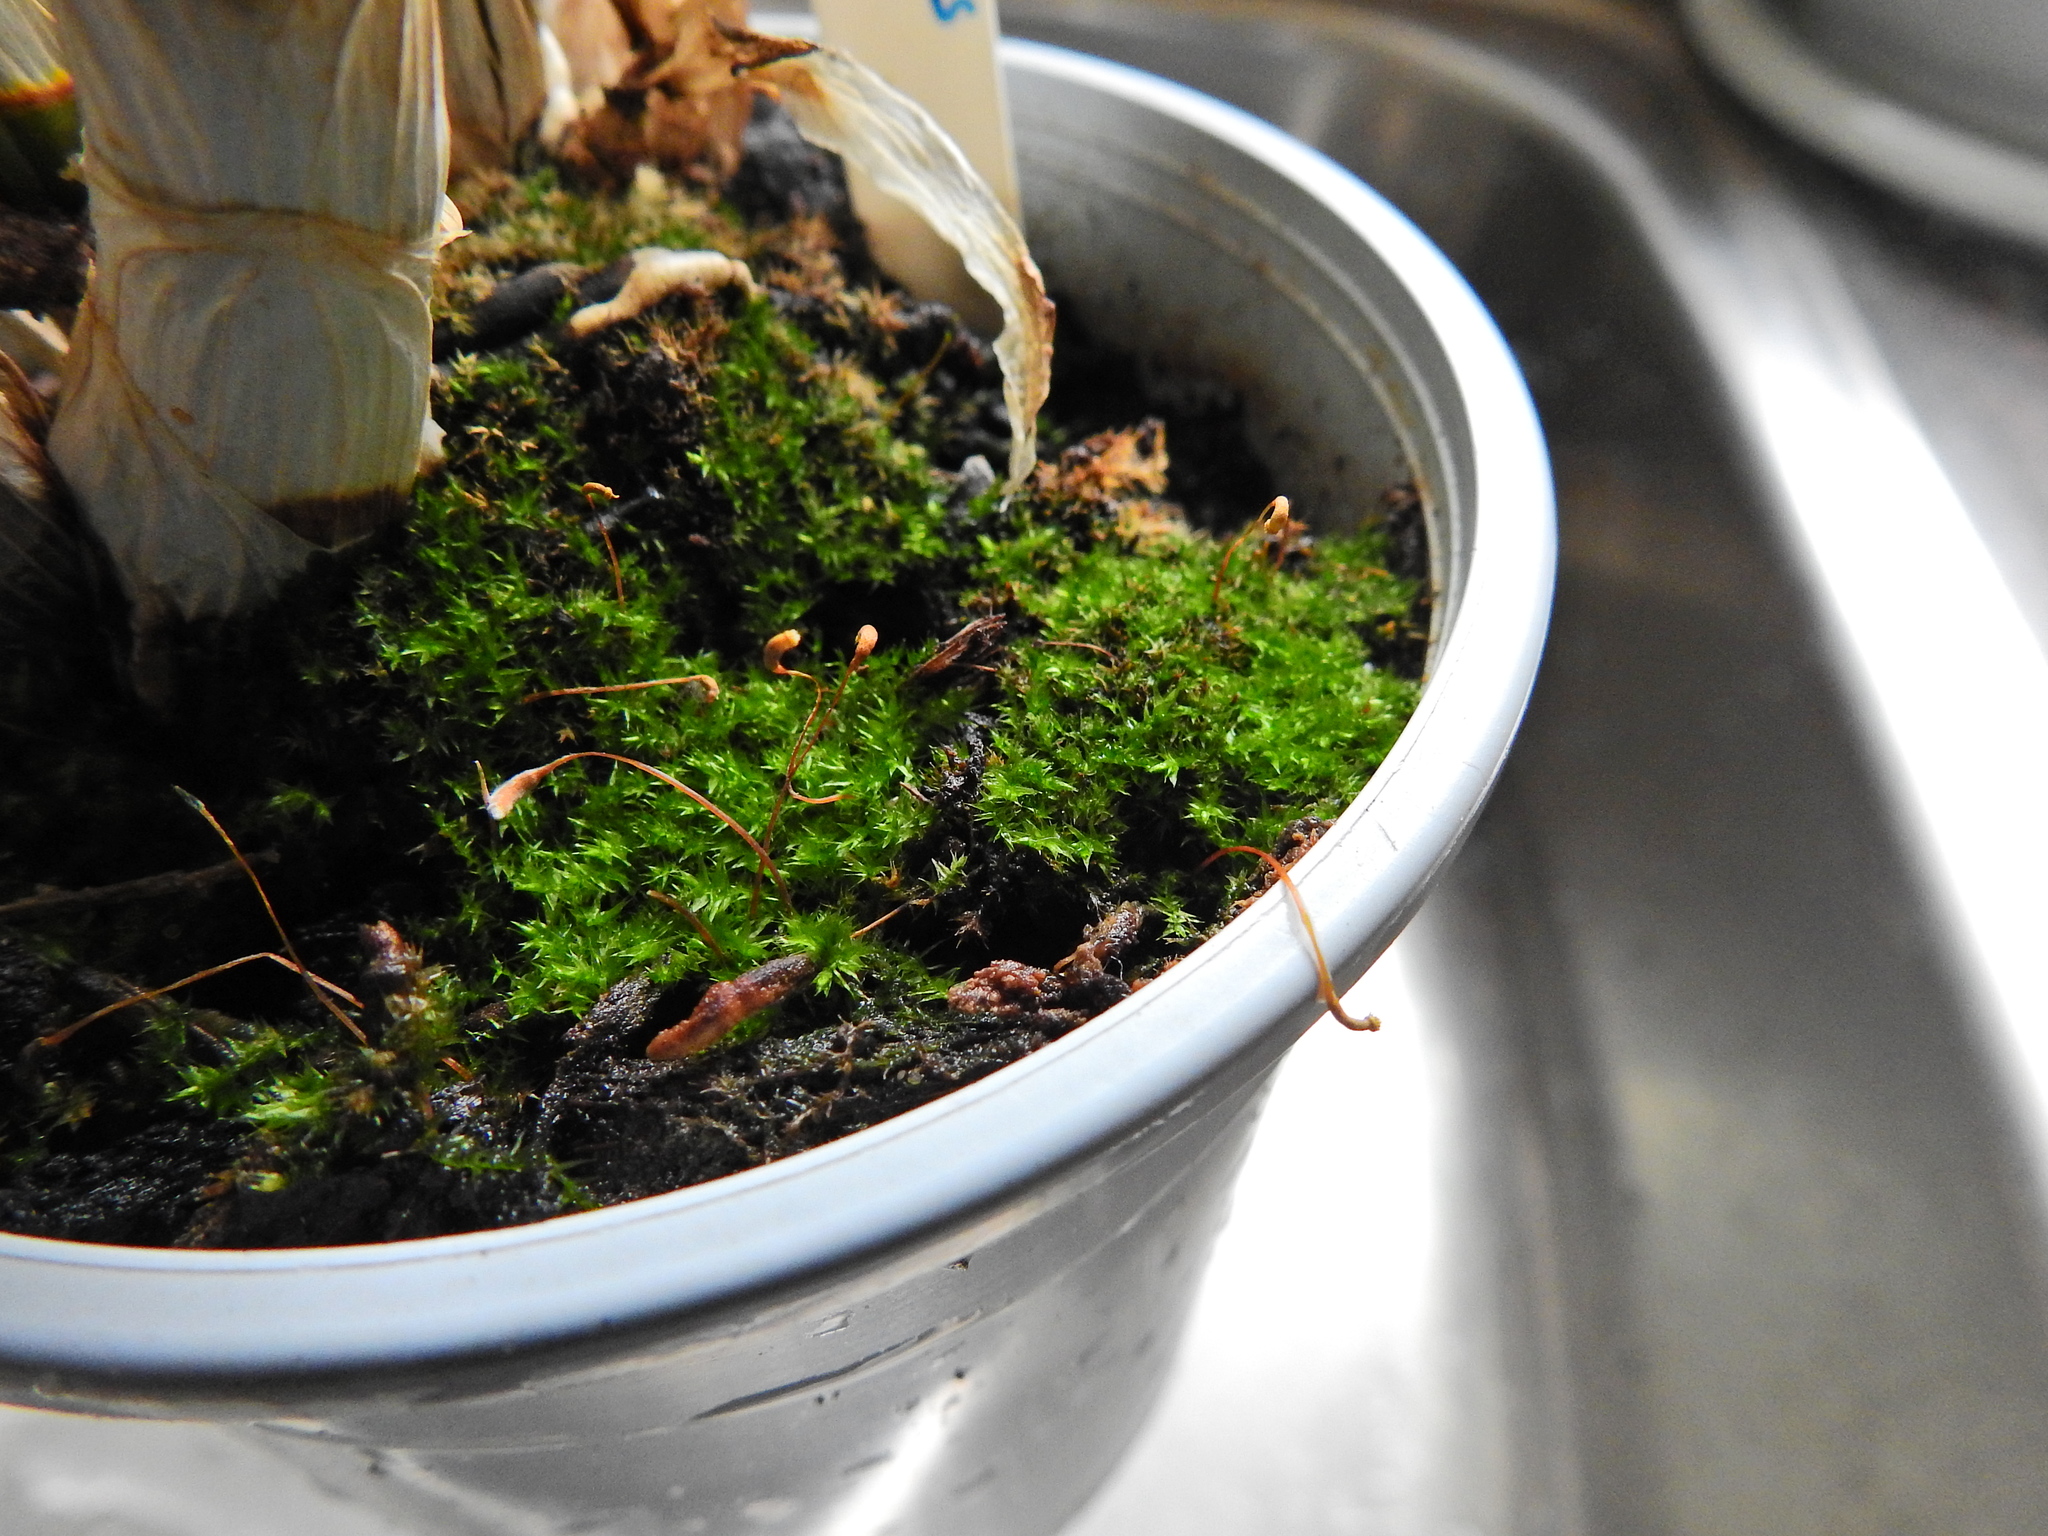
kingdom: Plantae
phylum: Bryophyta
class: Bryopsida
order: Funariales
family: Funariaceae
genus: Funaria
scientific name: Funaria hygrometrica
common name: Common cord moss
